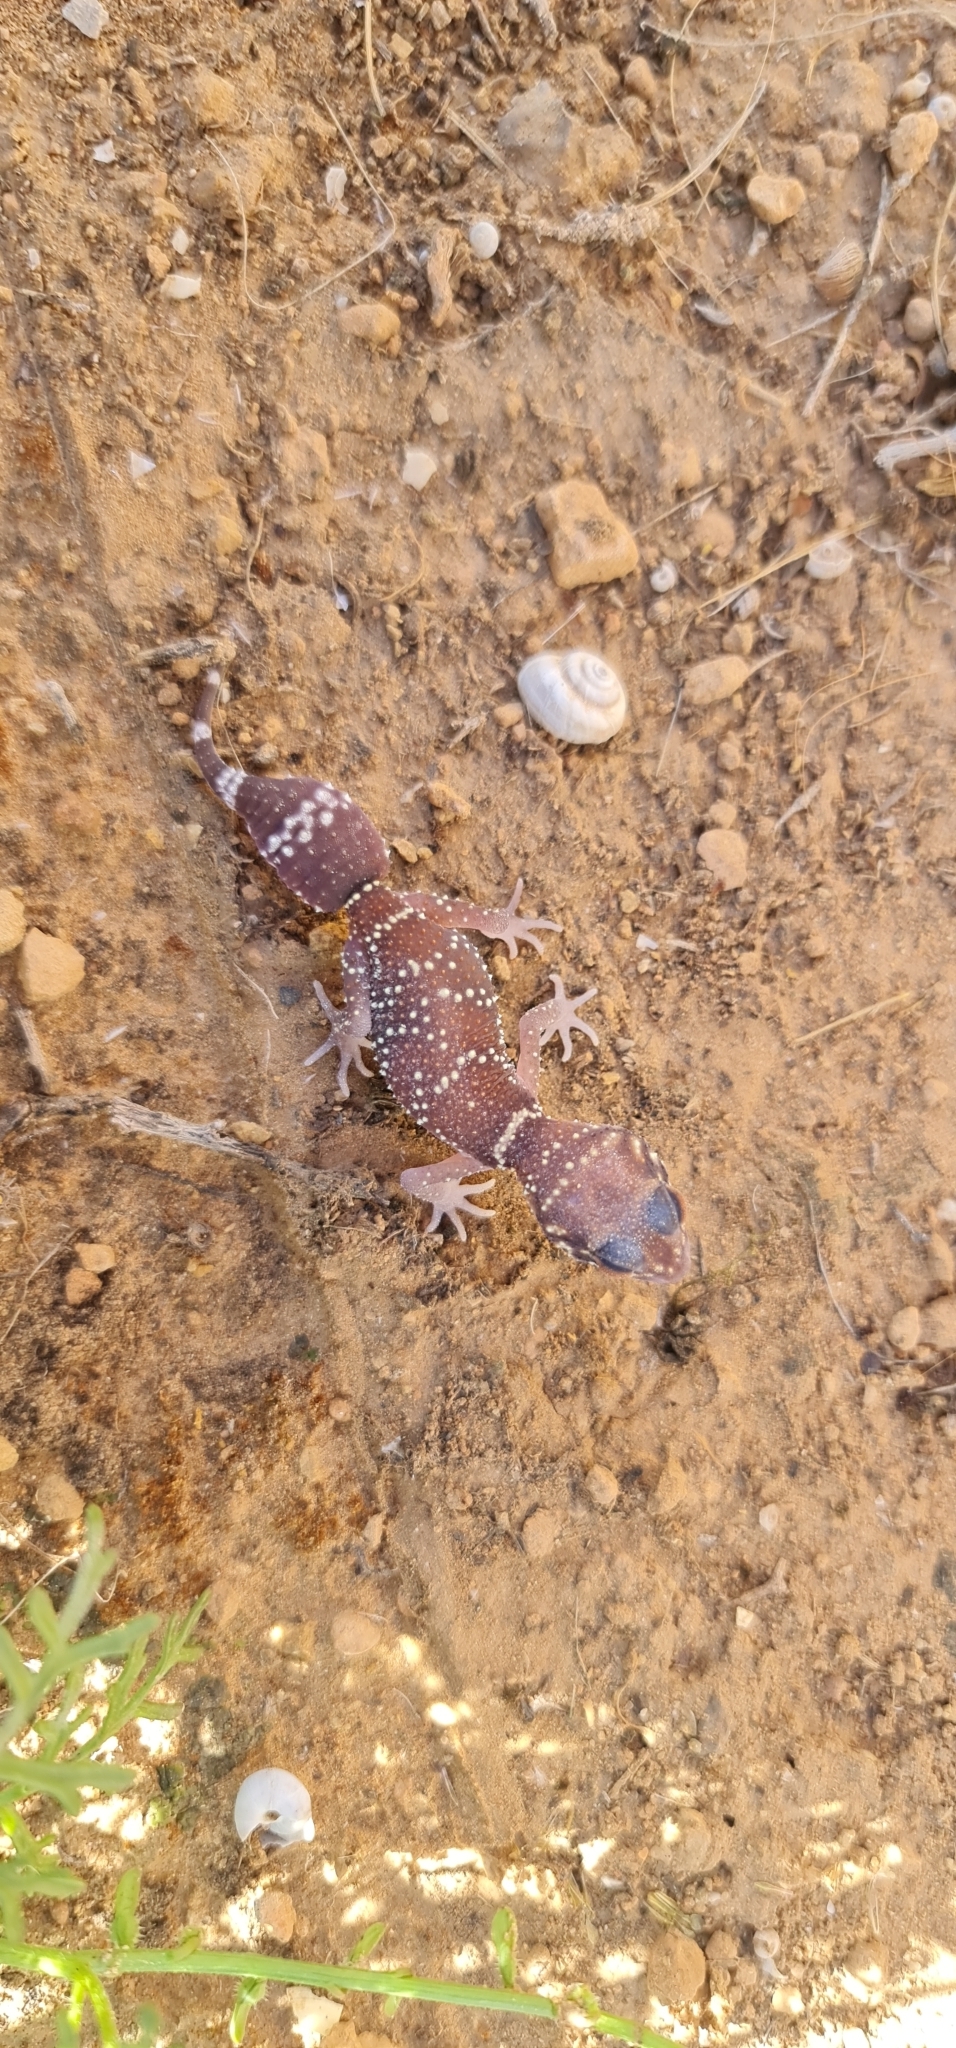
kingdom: Animalia
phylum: Chordata
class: Squamata
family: Carphodactylidae
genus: Underwoodisaurus
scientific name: Underwoodisaurus milii
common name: Barking gecko
